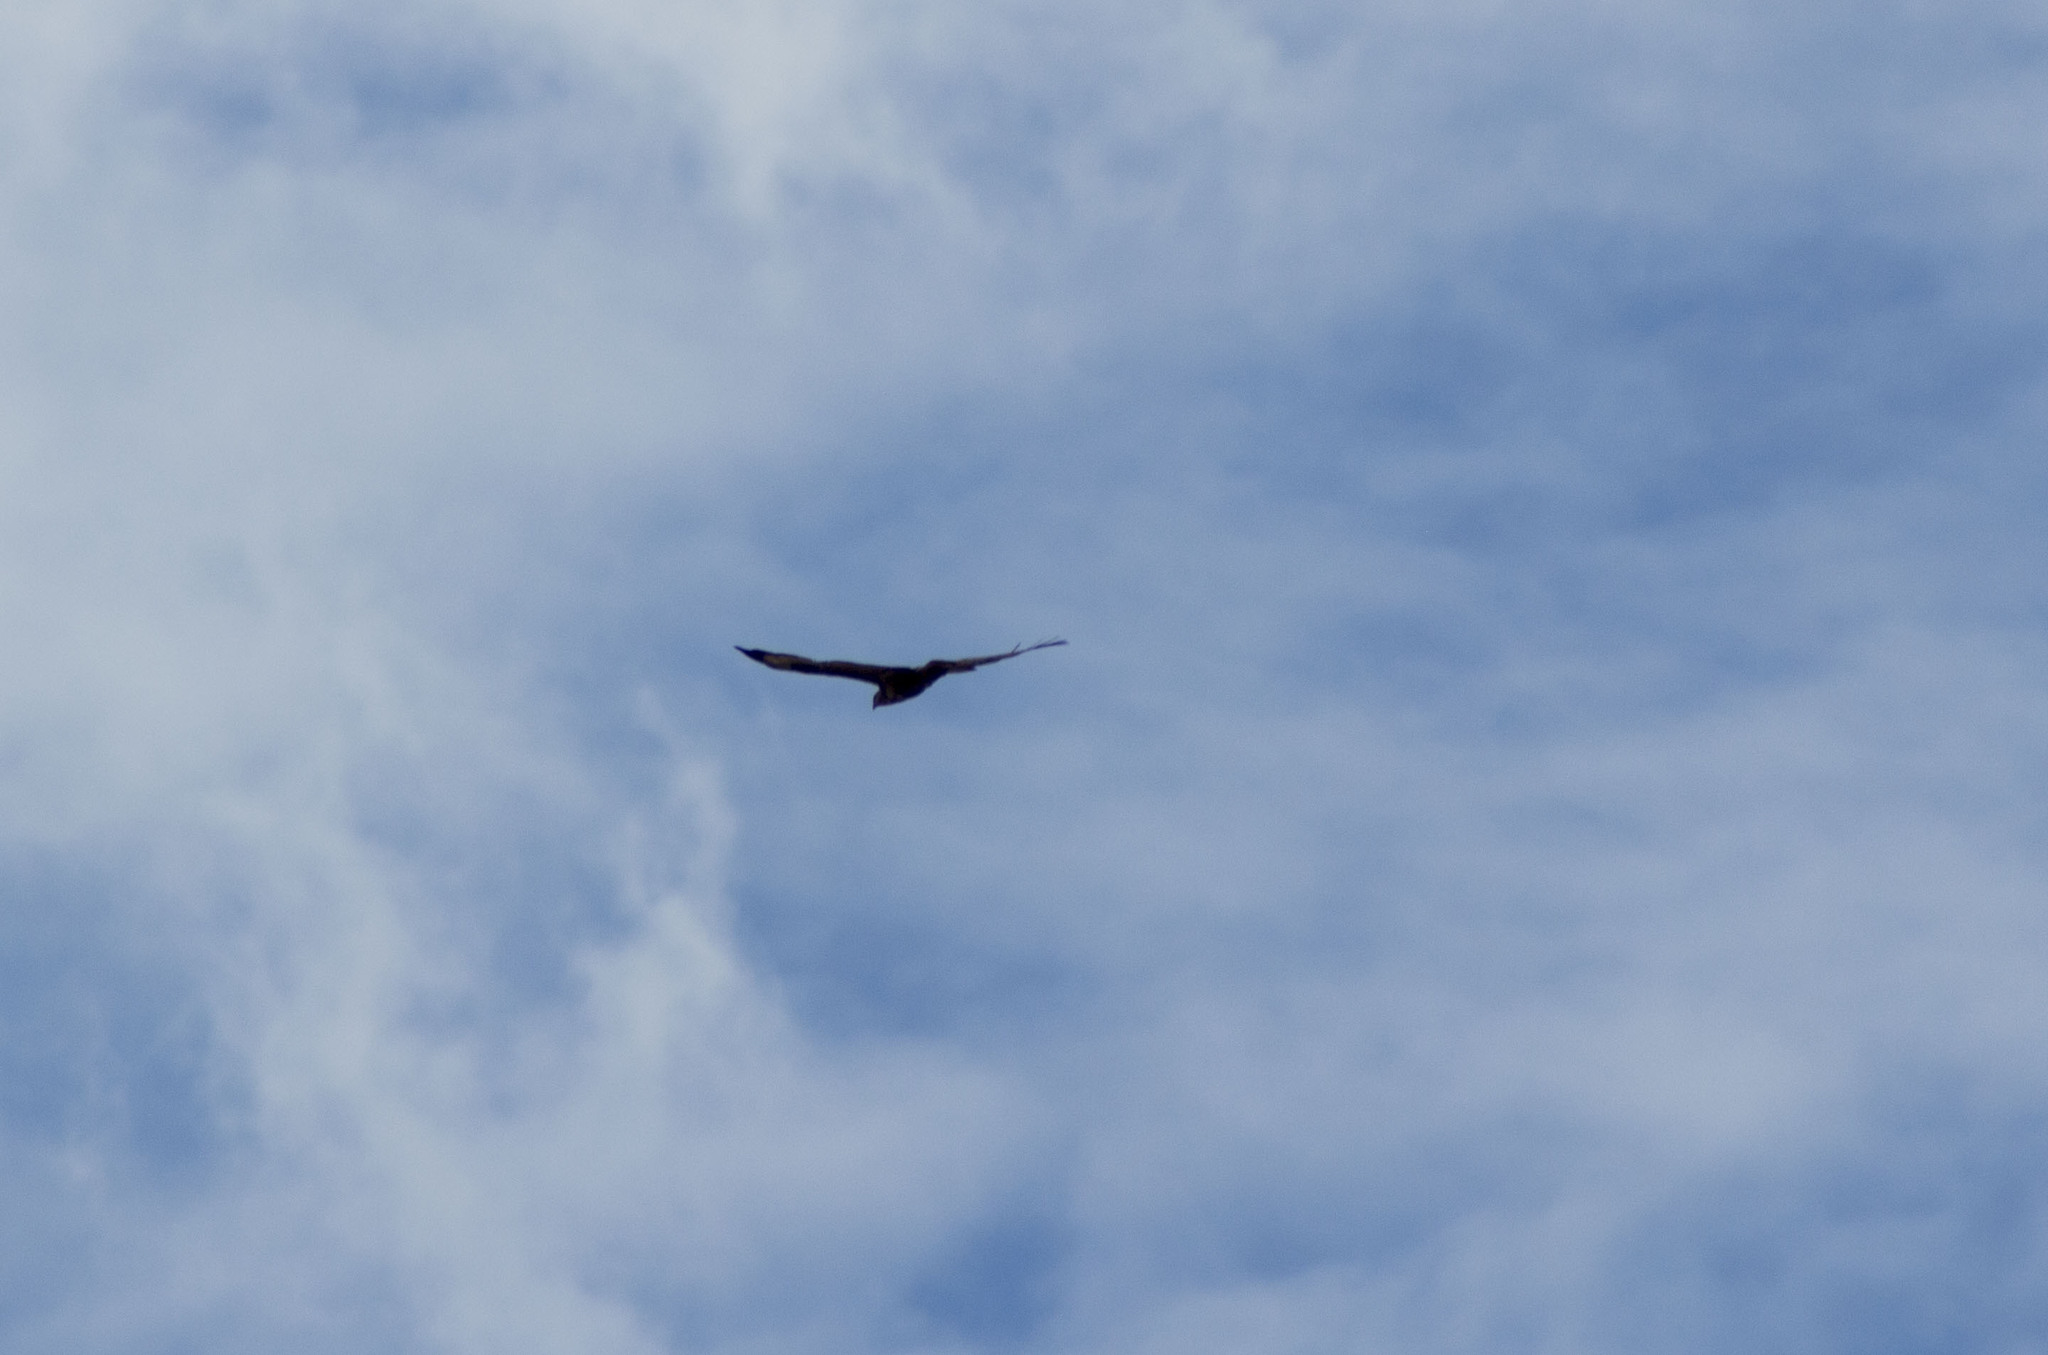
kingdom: Animalia
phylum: Chordata
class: Aves
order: Accipitriformes
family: Accipitridae
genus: Buteo
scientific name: Buteo buteo
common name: Common buzzard
